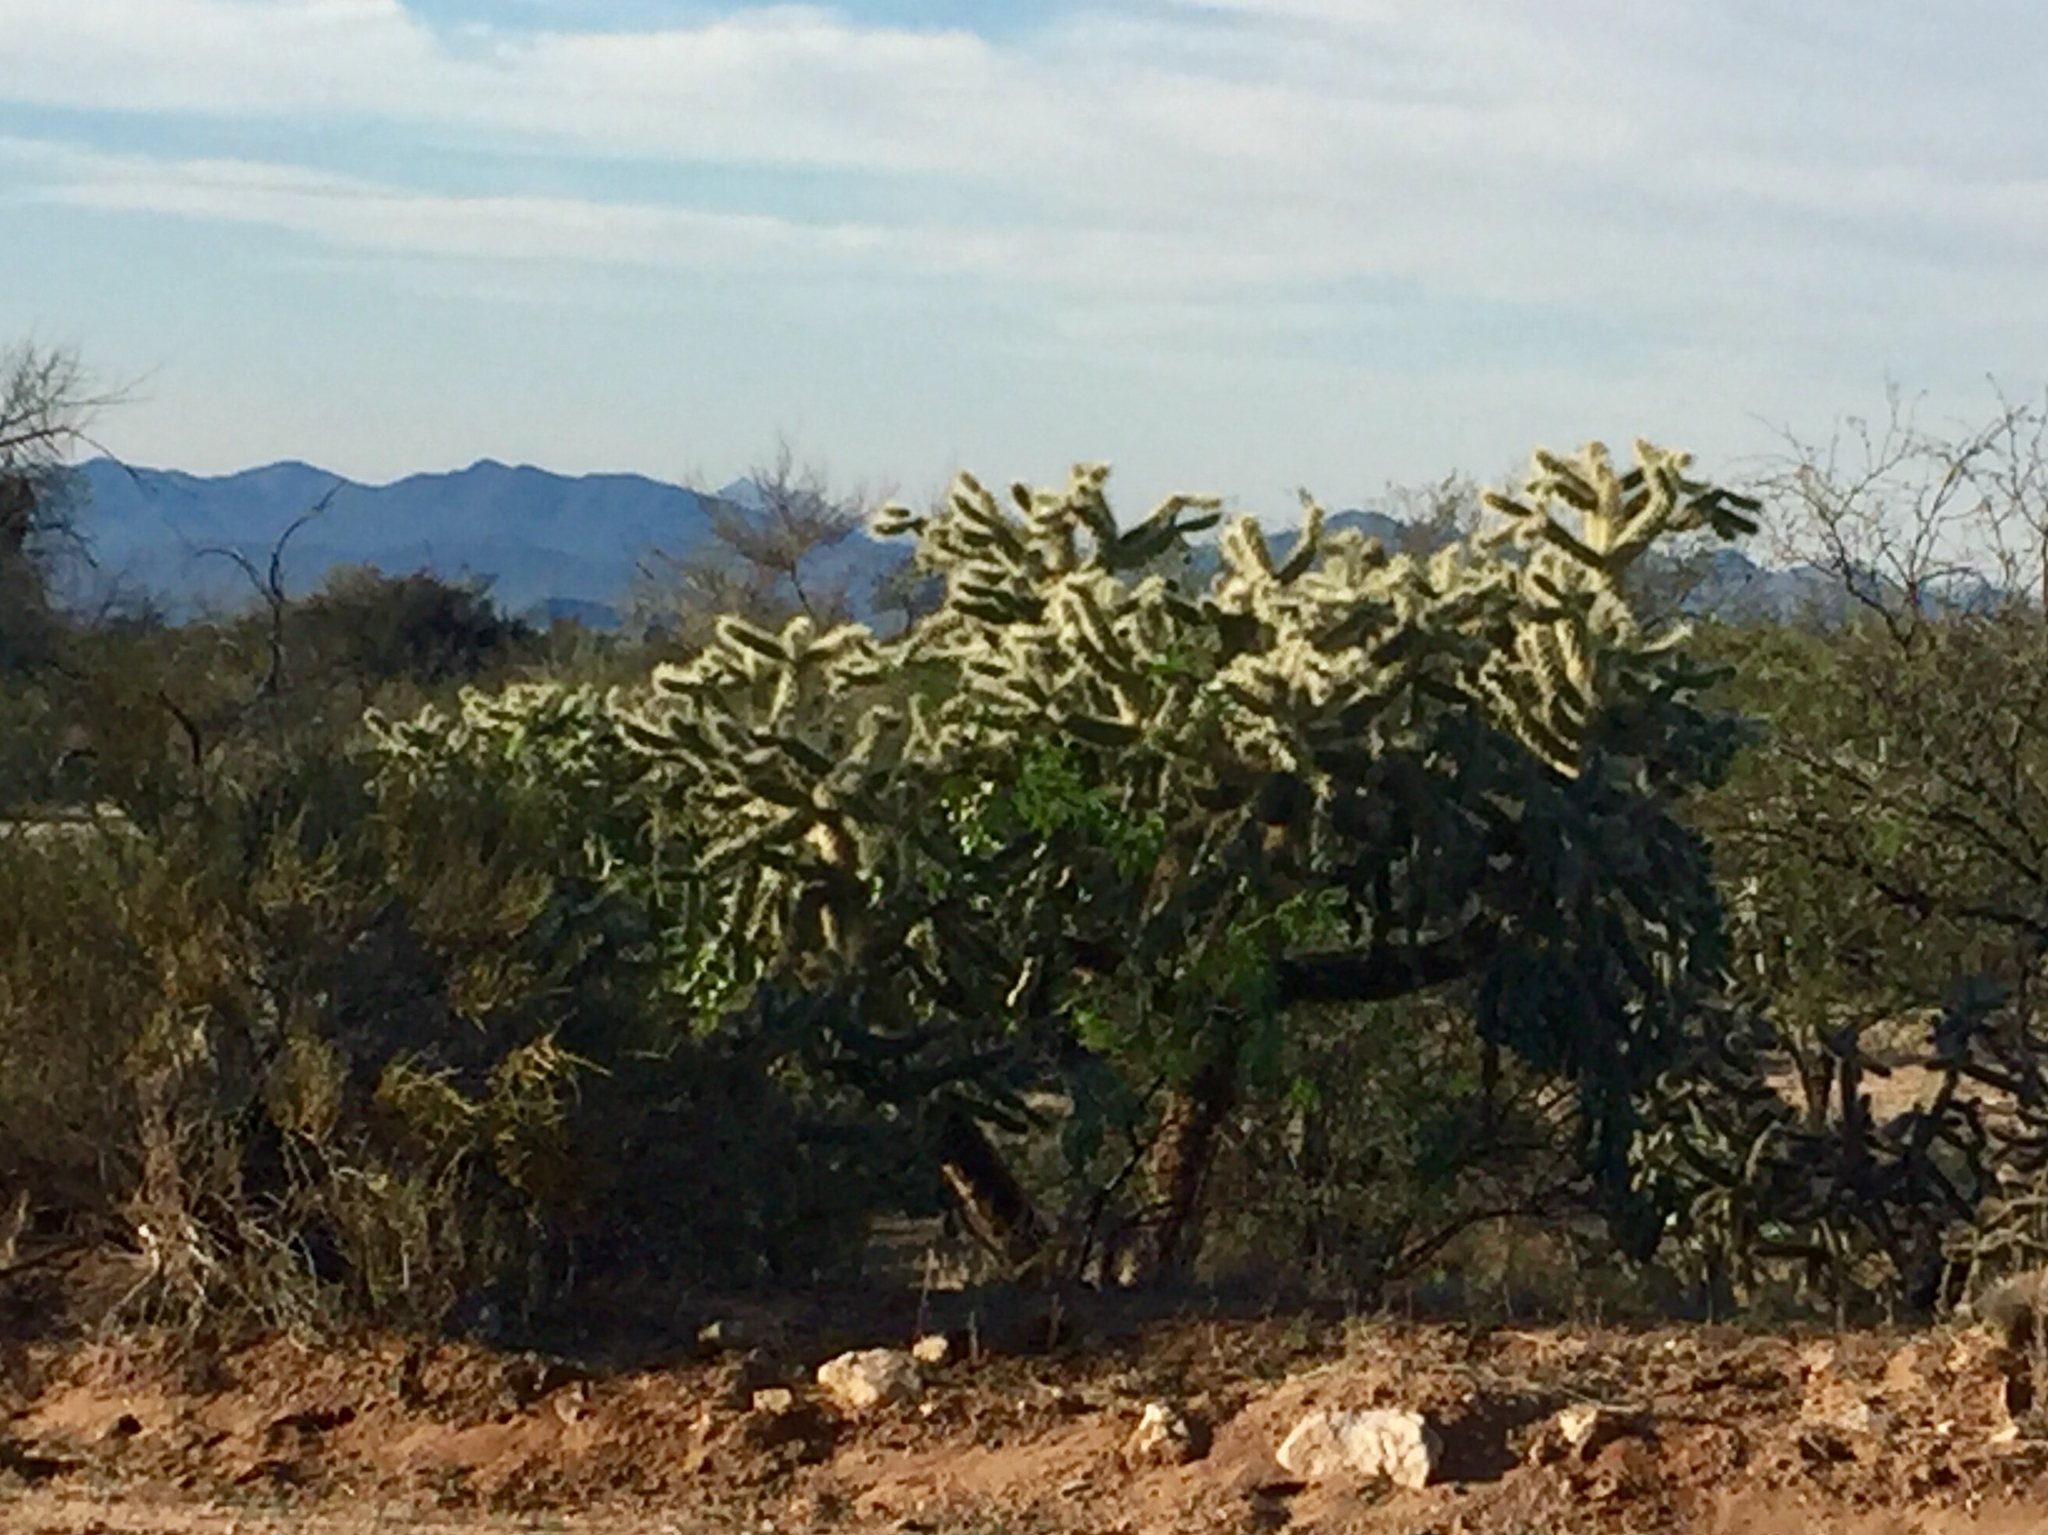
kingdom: Plantae
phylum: Tracheophyta
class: Magnoliopsida
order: Caryophyllales
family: Cactaceae
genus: Cylindropuntia
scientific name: Cylindropuntia fulgida
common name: Jumping cholla
